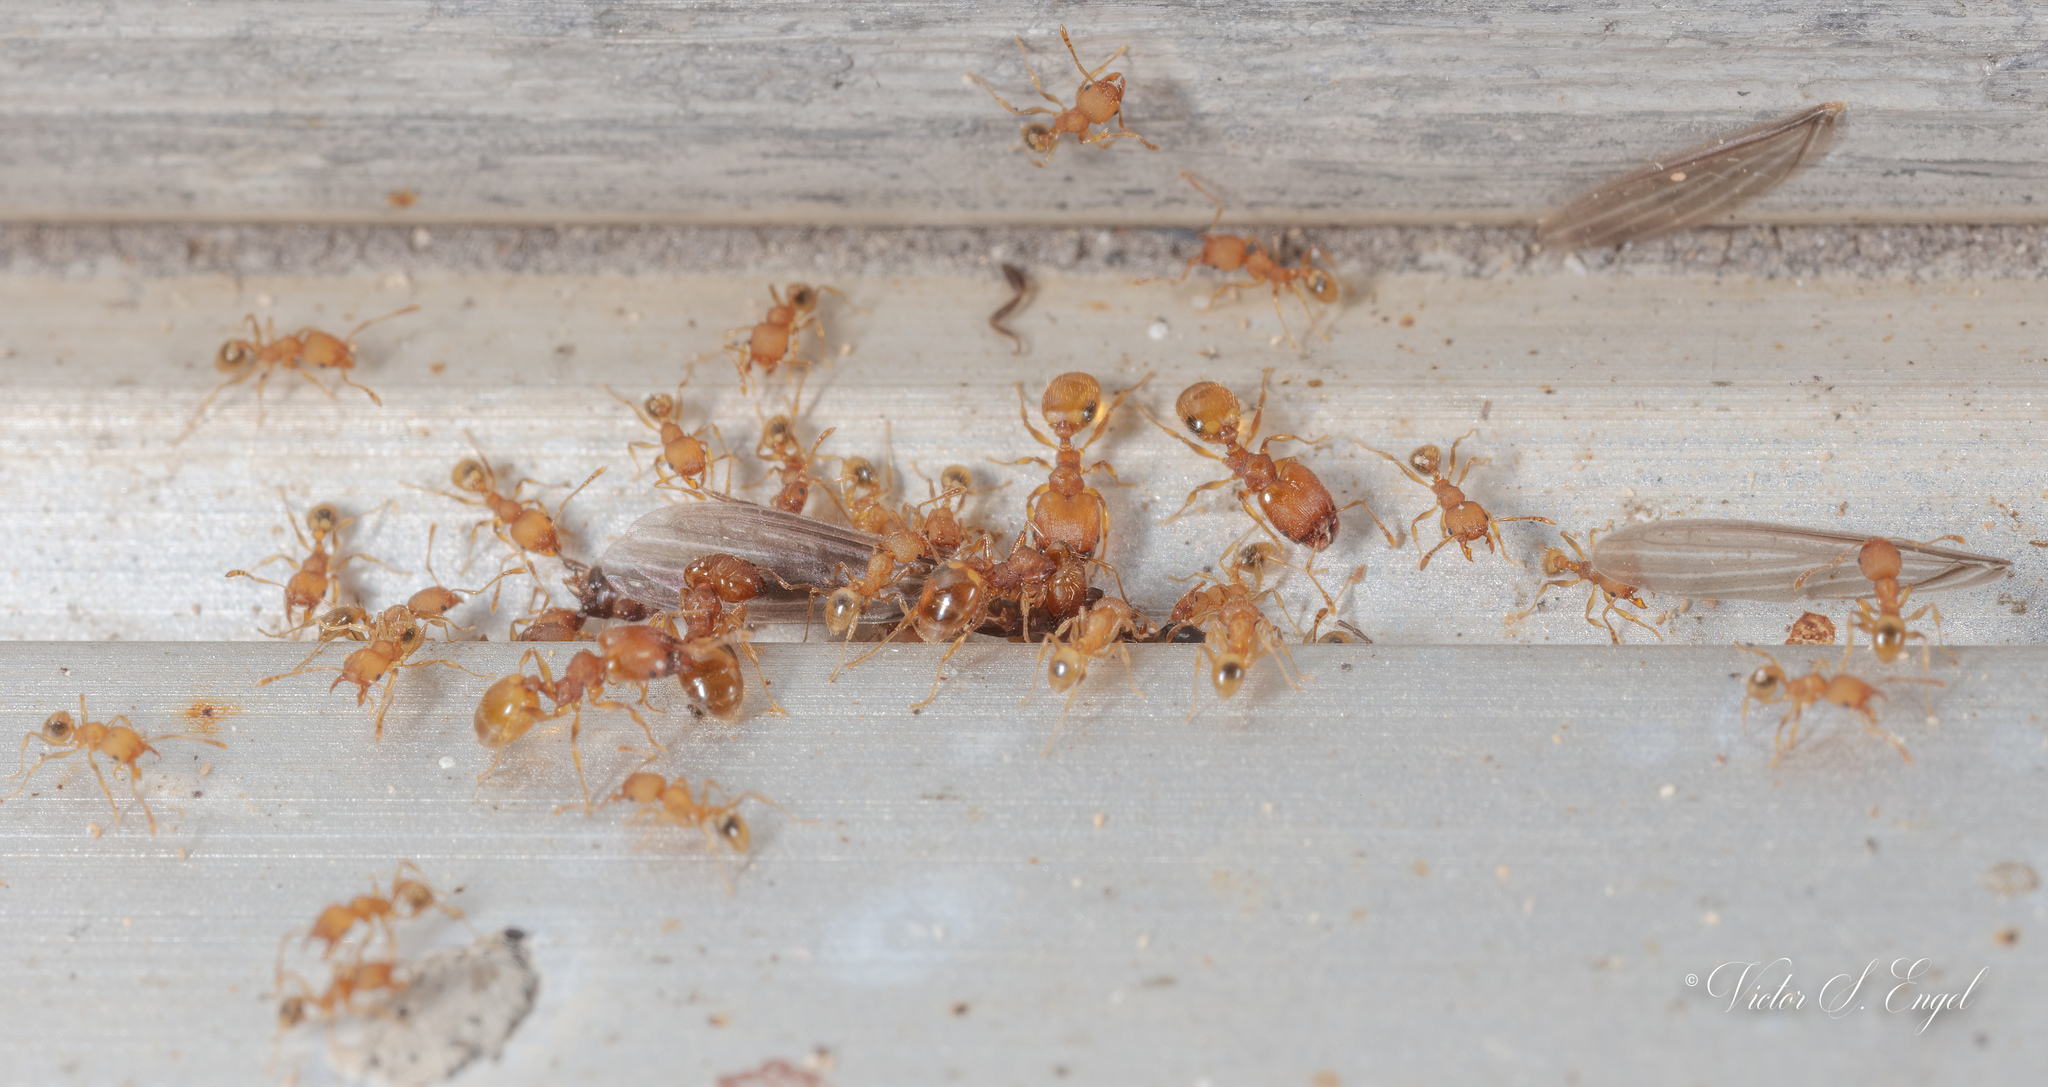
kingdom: Animalia
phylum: Arthropoda
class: Insecta
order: Hymenoptera
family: Formicidae
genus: Pheidole
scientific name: Pheidole bilimeki
